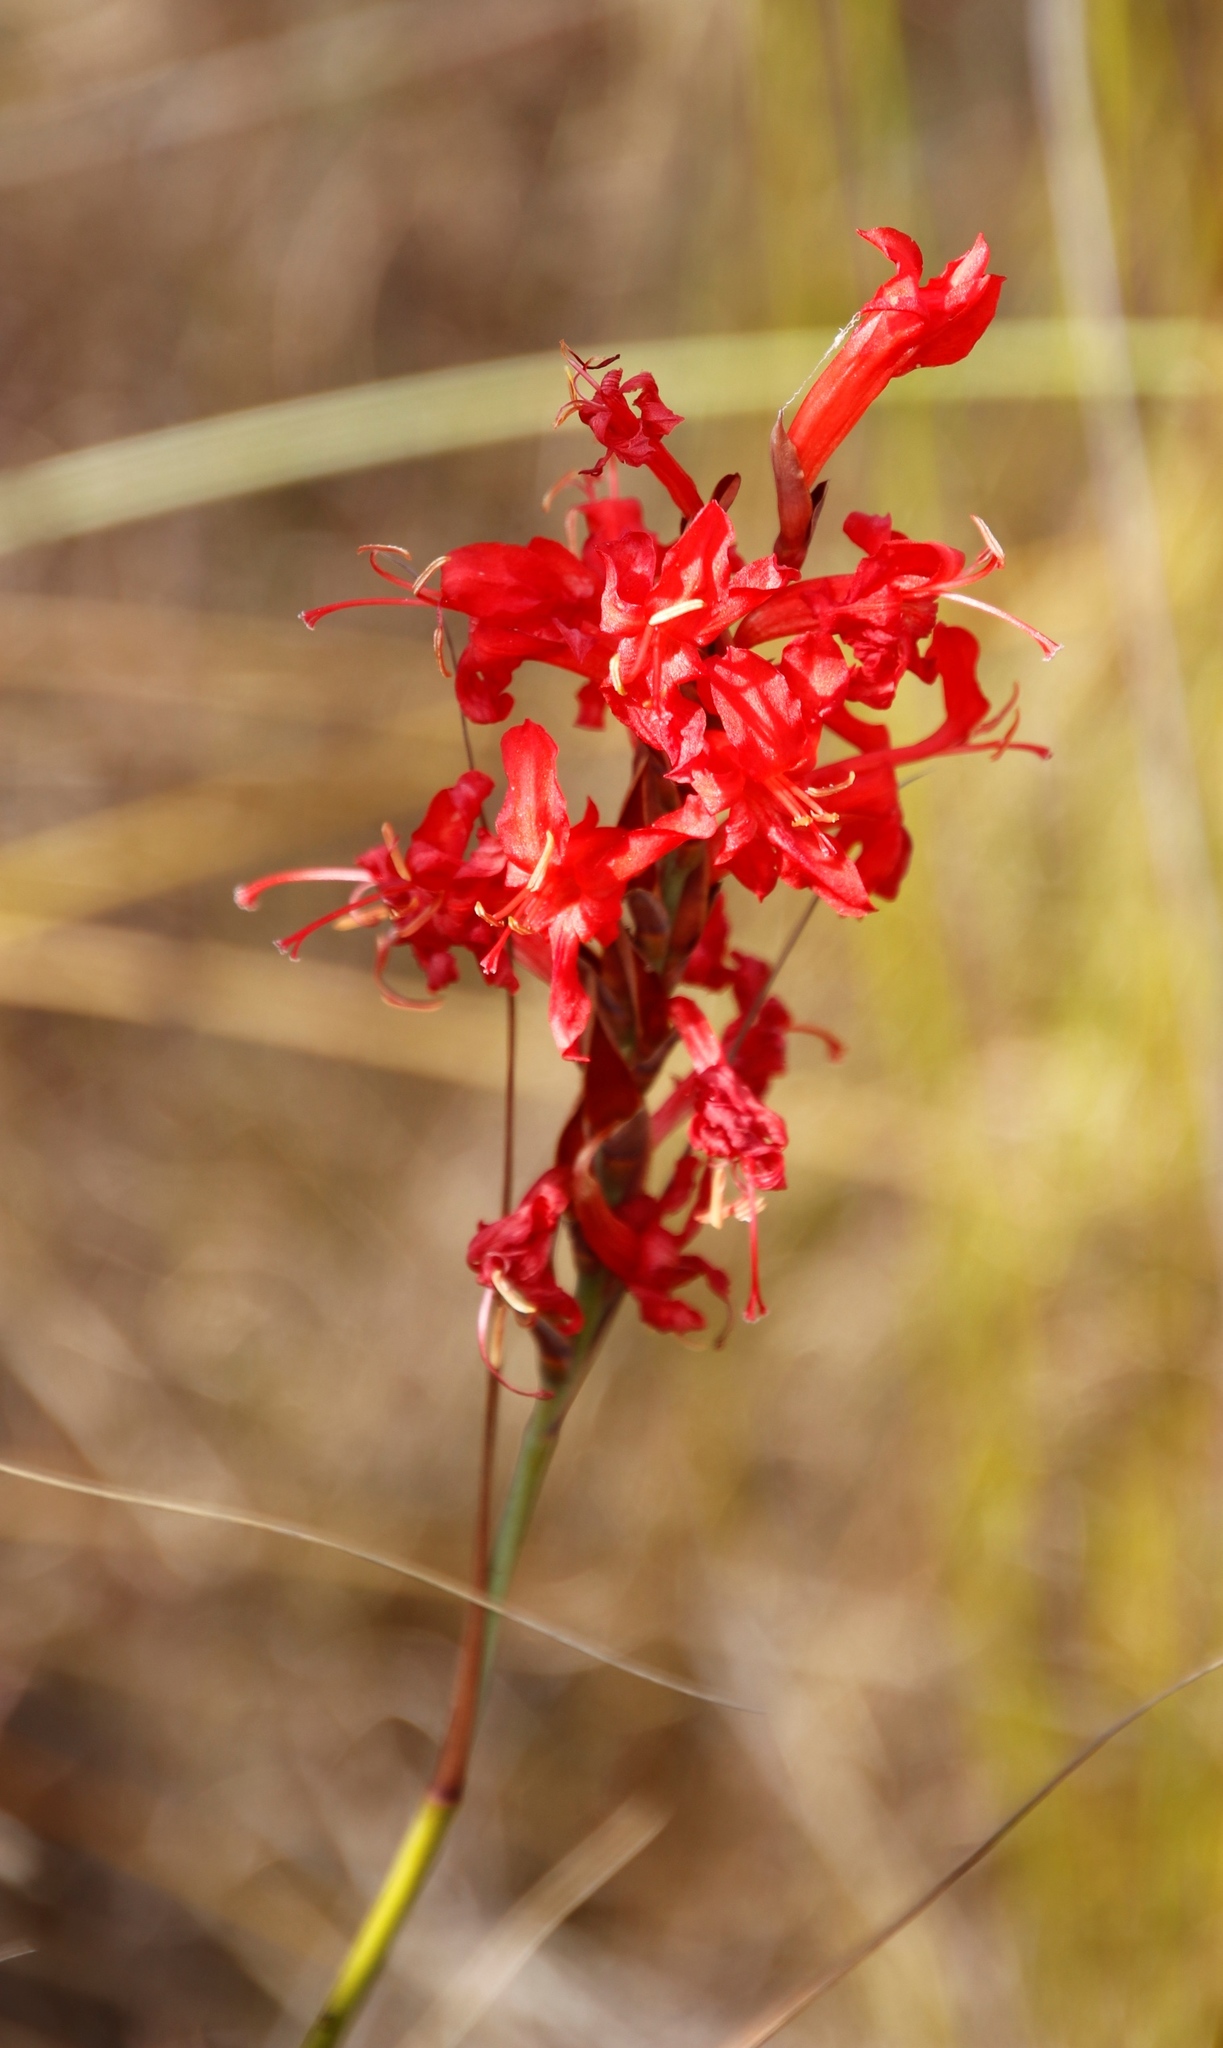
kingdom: Plantae
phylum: Tracheophyta
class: Liliopsida
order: Asparagales
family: Iridaceae
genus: Tritoniopsis
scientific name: Tritoniopsis triticea
